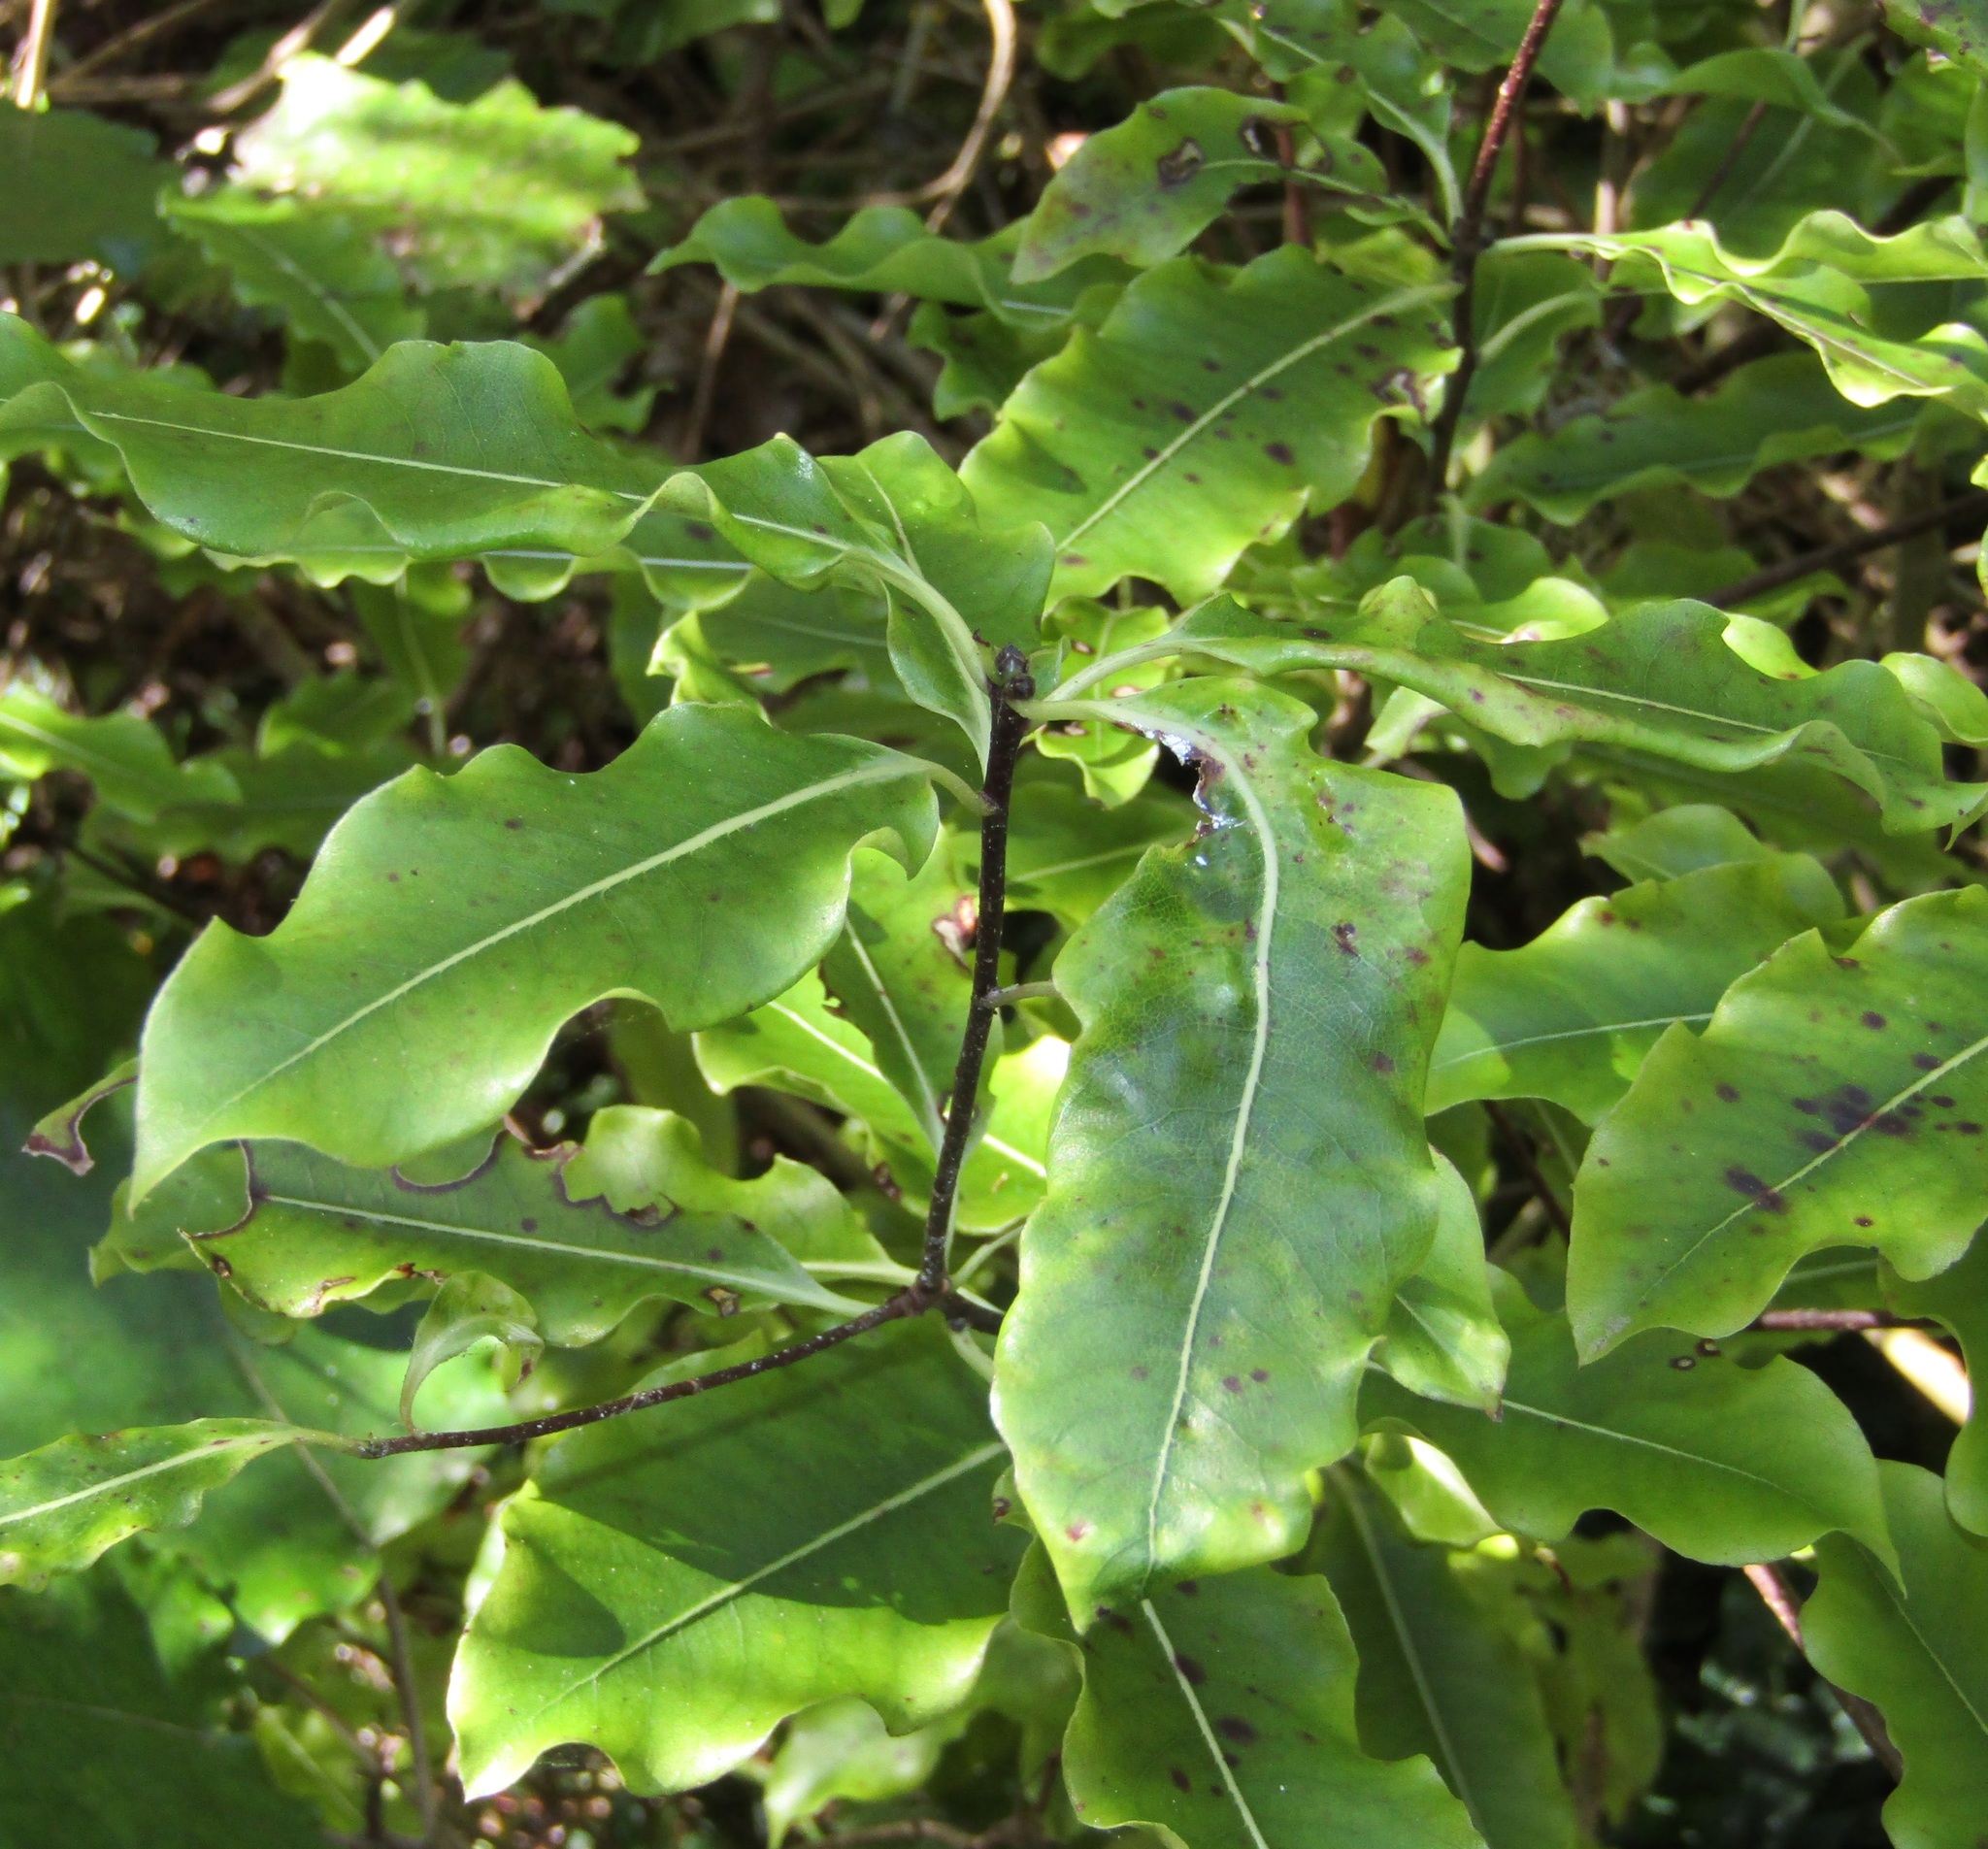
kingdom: Plantae
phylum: Tracheophyta
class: Magnoliopsida
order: Apiales
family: Pittosporaceae
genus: Pittosporum
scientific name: Pittosporum eugenioides
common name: Lemonwood
